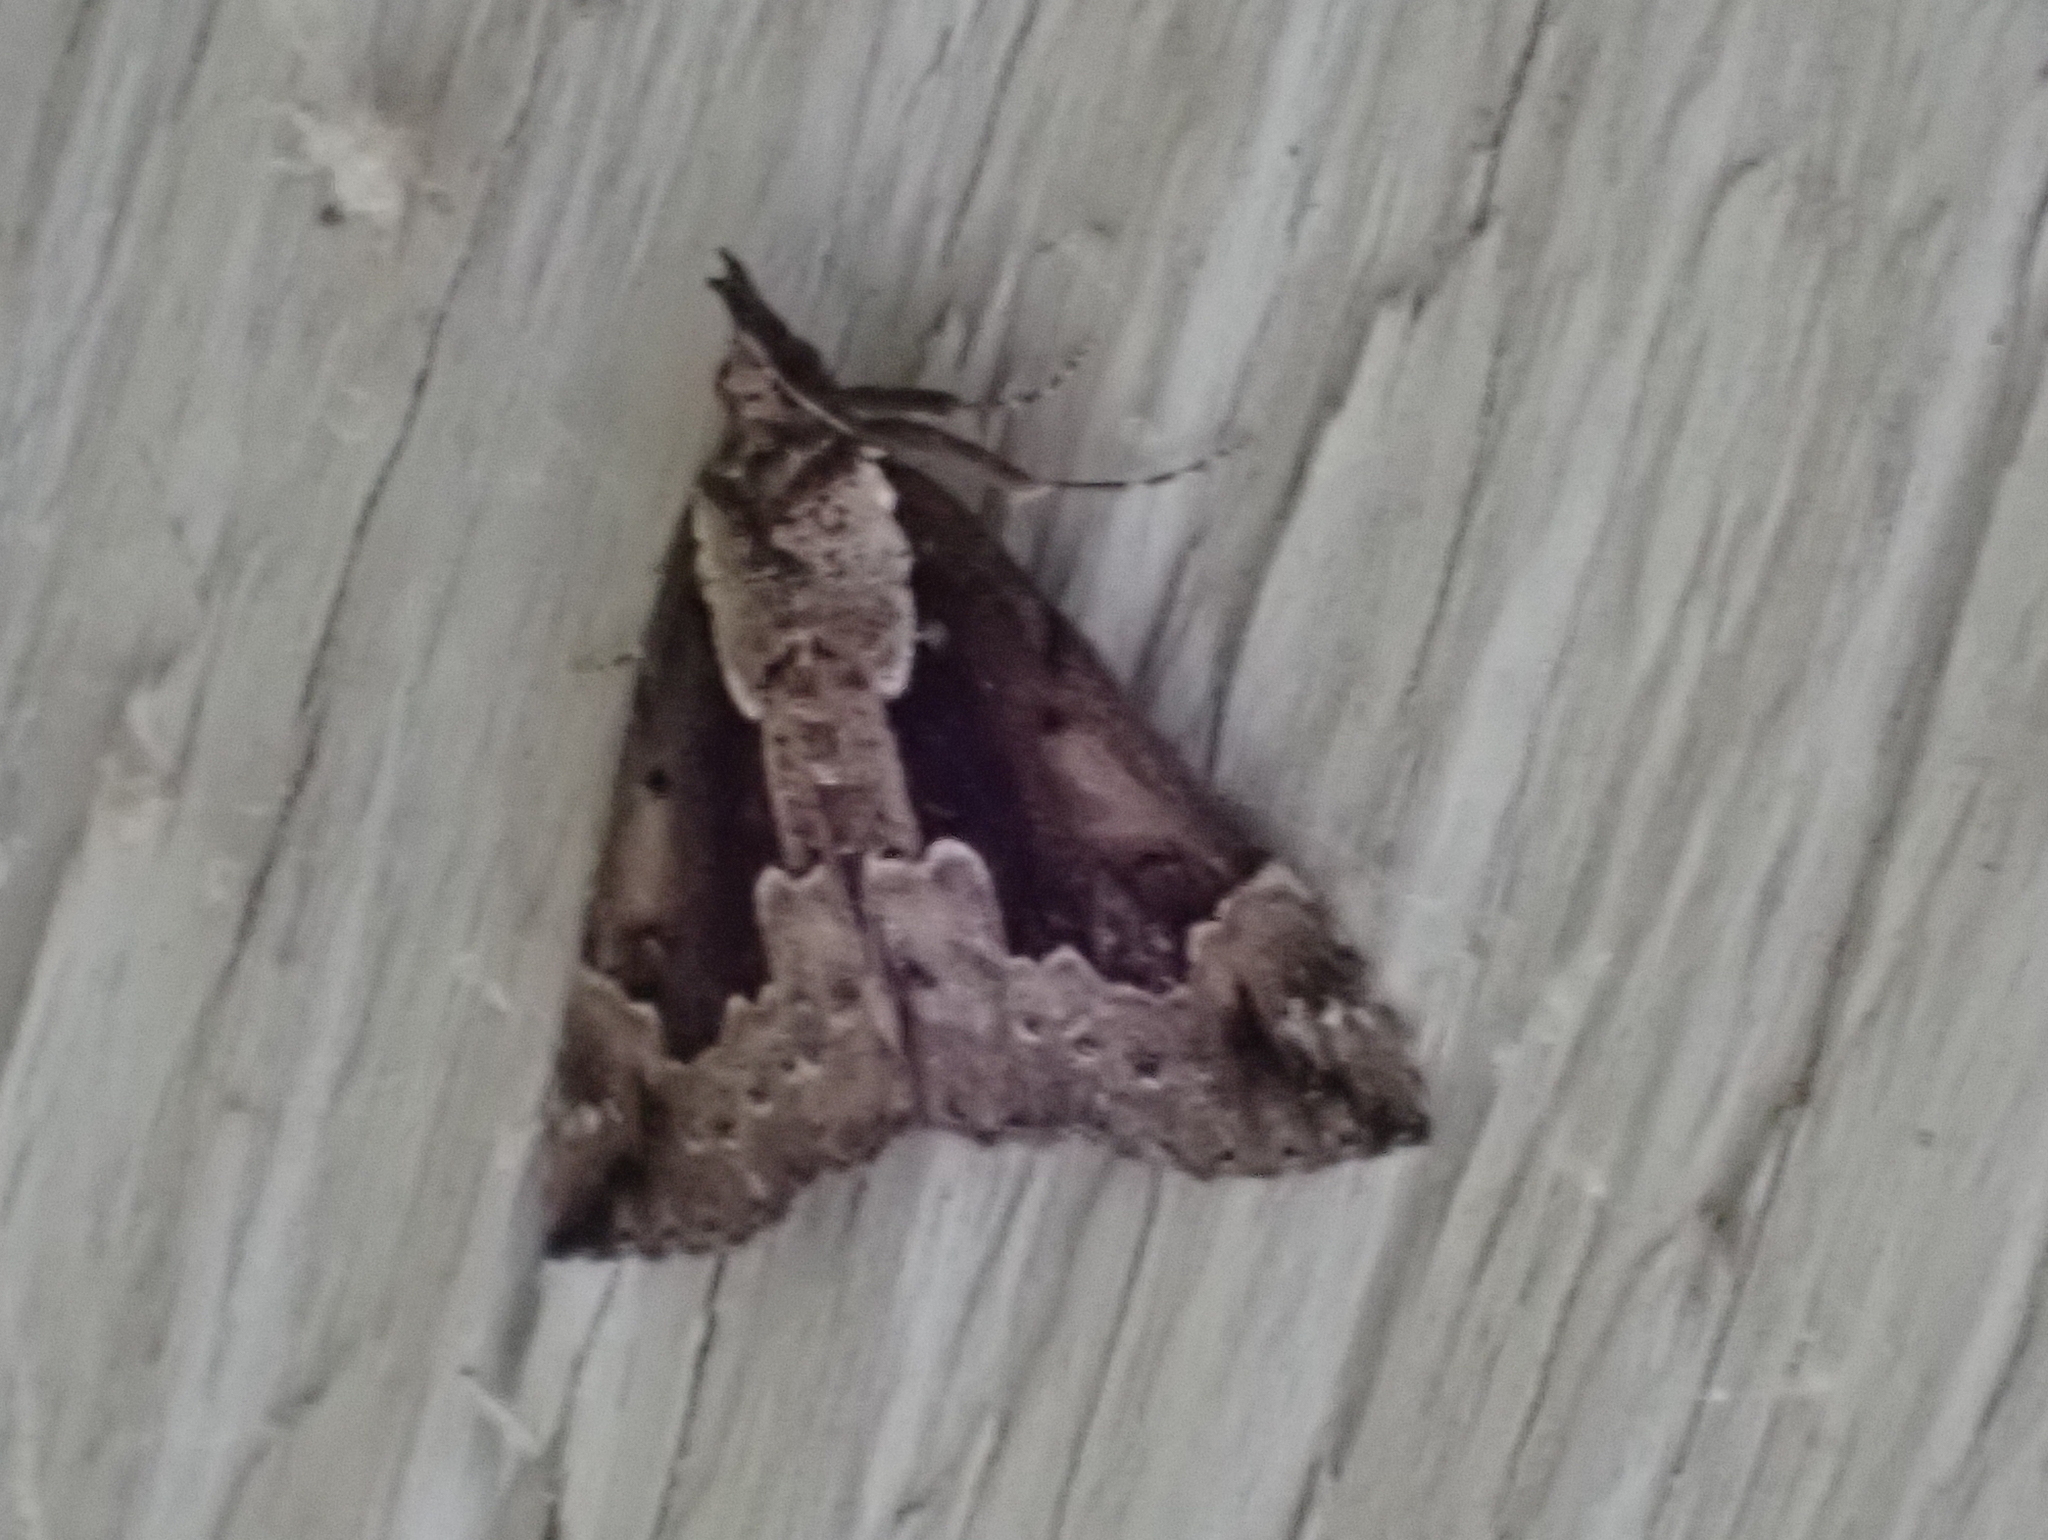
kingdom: Animalia
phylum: Arthropoda
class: Insecta
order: Lepidoptera
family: Erebidae
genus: Hypena
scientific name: Hypena baltimoralis
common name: Baltimore snout
